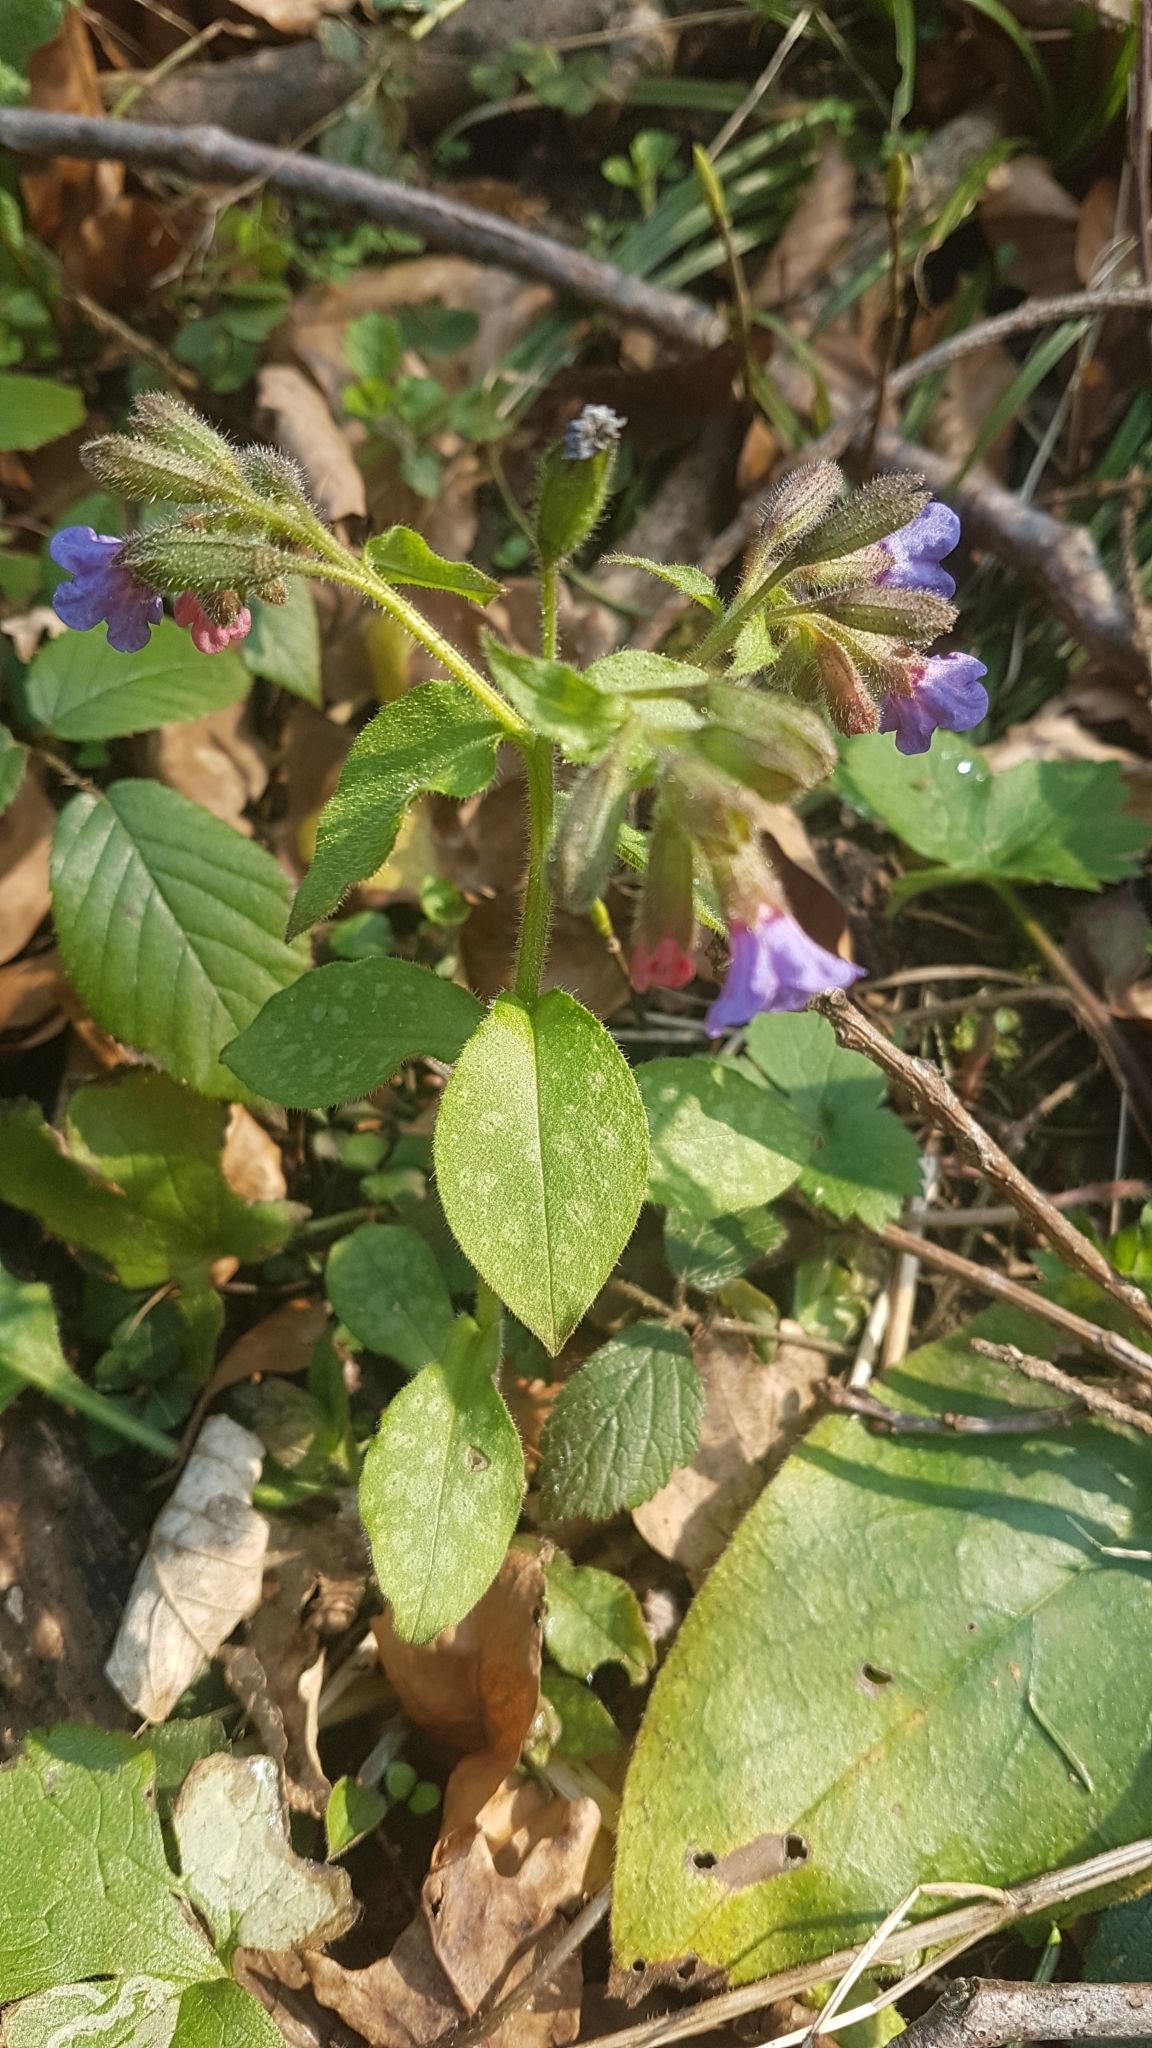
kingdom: Plantae
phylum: Tracheophyta
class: Magnoliopsida
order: Boraginales
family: Boraginaceae
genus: Pulmonaria
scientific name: Pulmonaria officinalis
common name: Lungwort
